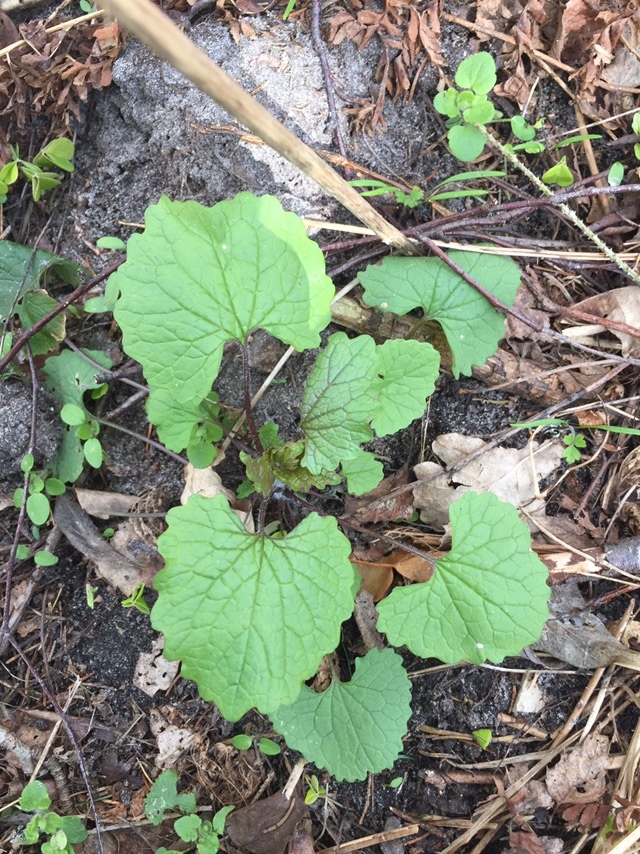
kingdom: Plantae
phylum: Tracheophyta
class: Magnoliopsida
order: Brassicales
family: Brassicaceae
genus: Alliaria
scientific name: Alliaria petiolata
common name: Garlic mustard
